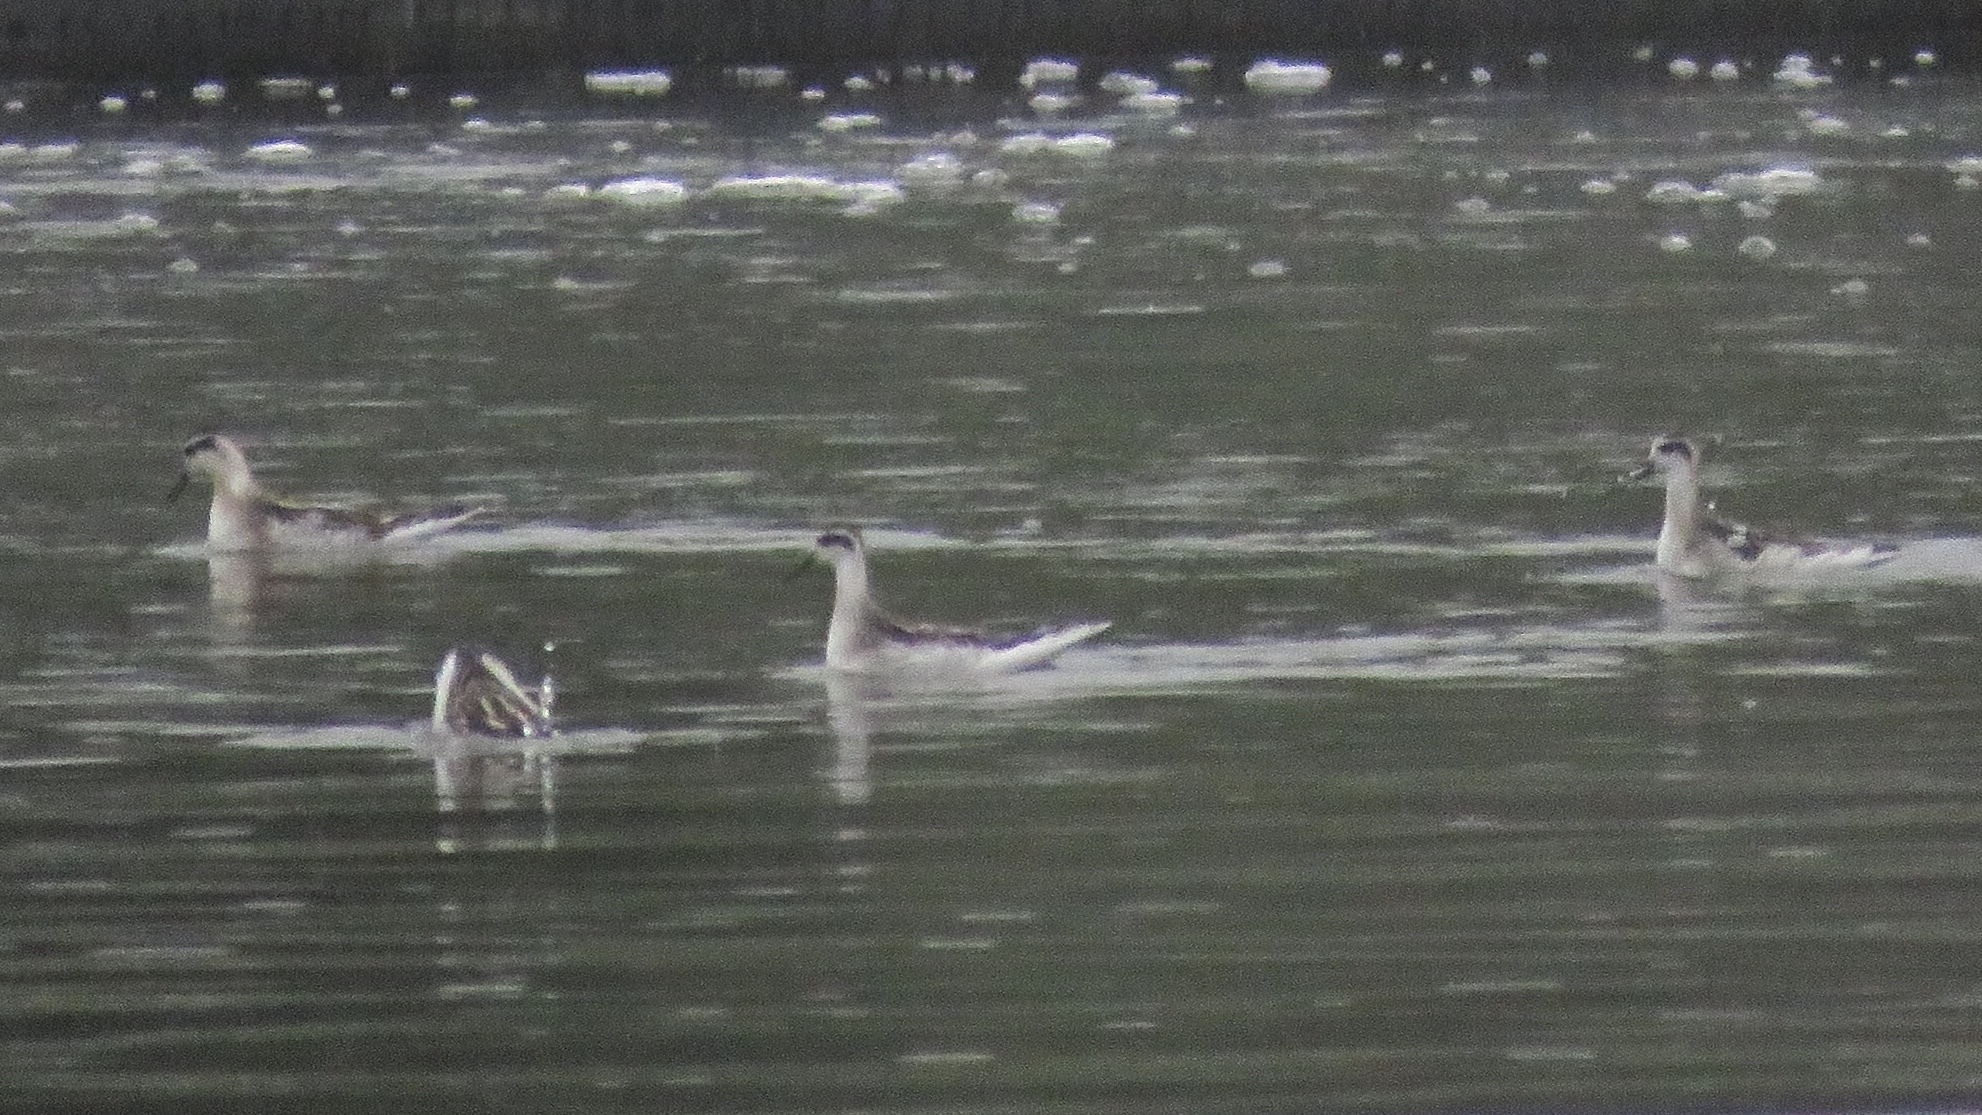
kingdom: Animalia
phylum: Chordata
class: Aves
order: Charadriiformes
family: Scolopacidae
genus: Phalaropus
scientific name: Phalaropus lobatus
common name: Red-necked phalarope
